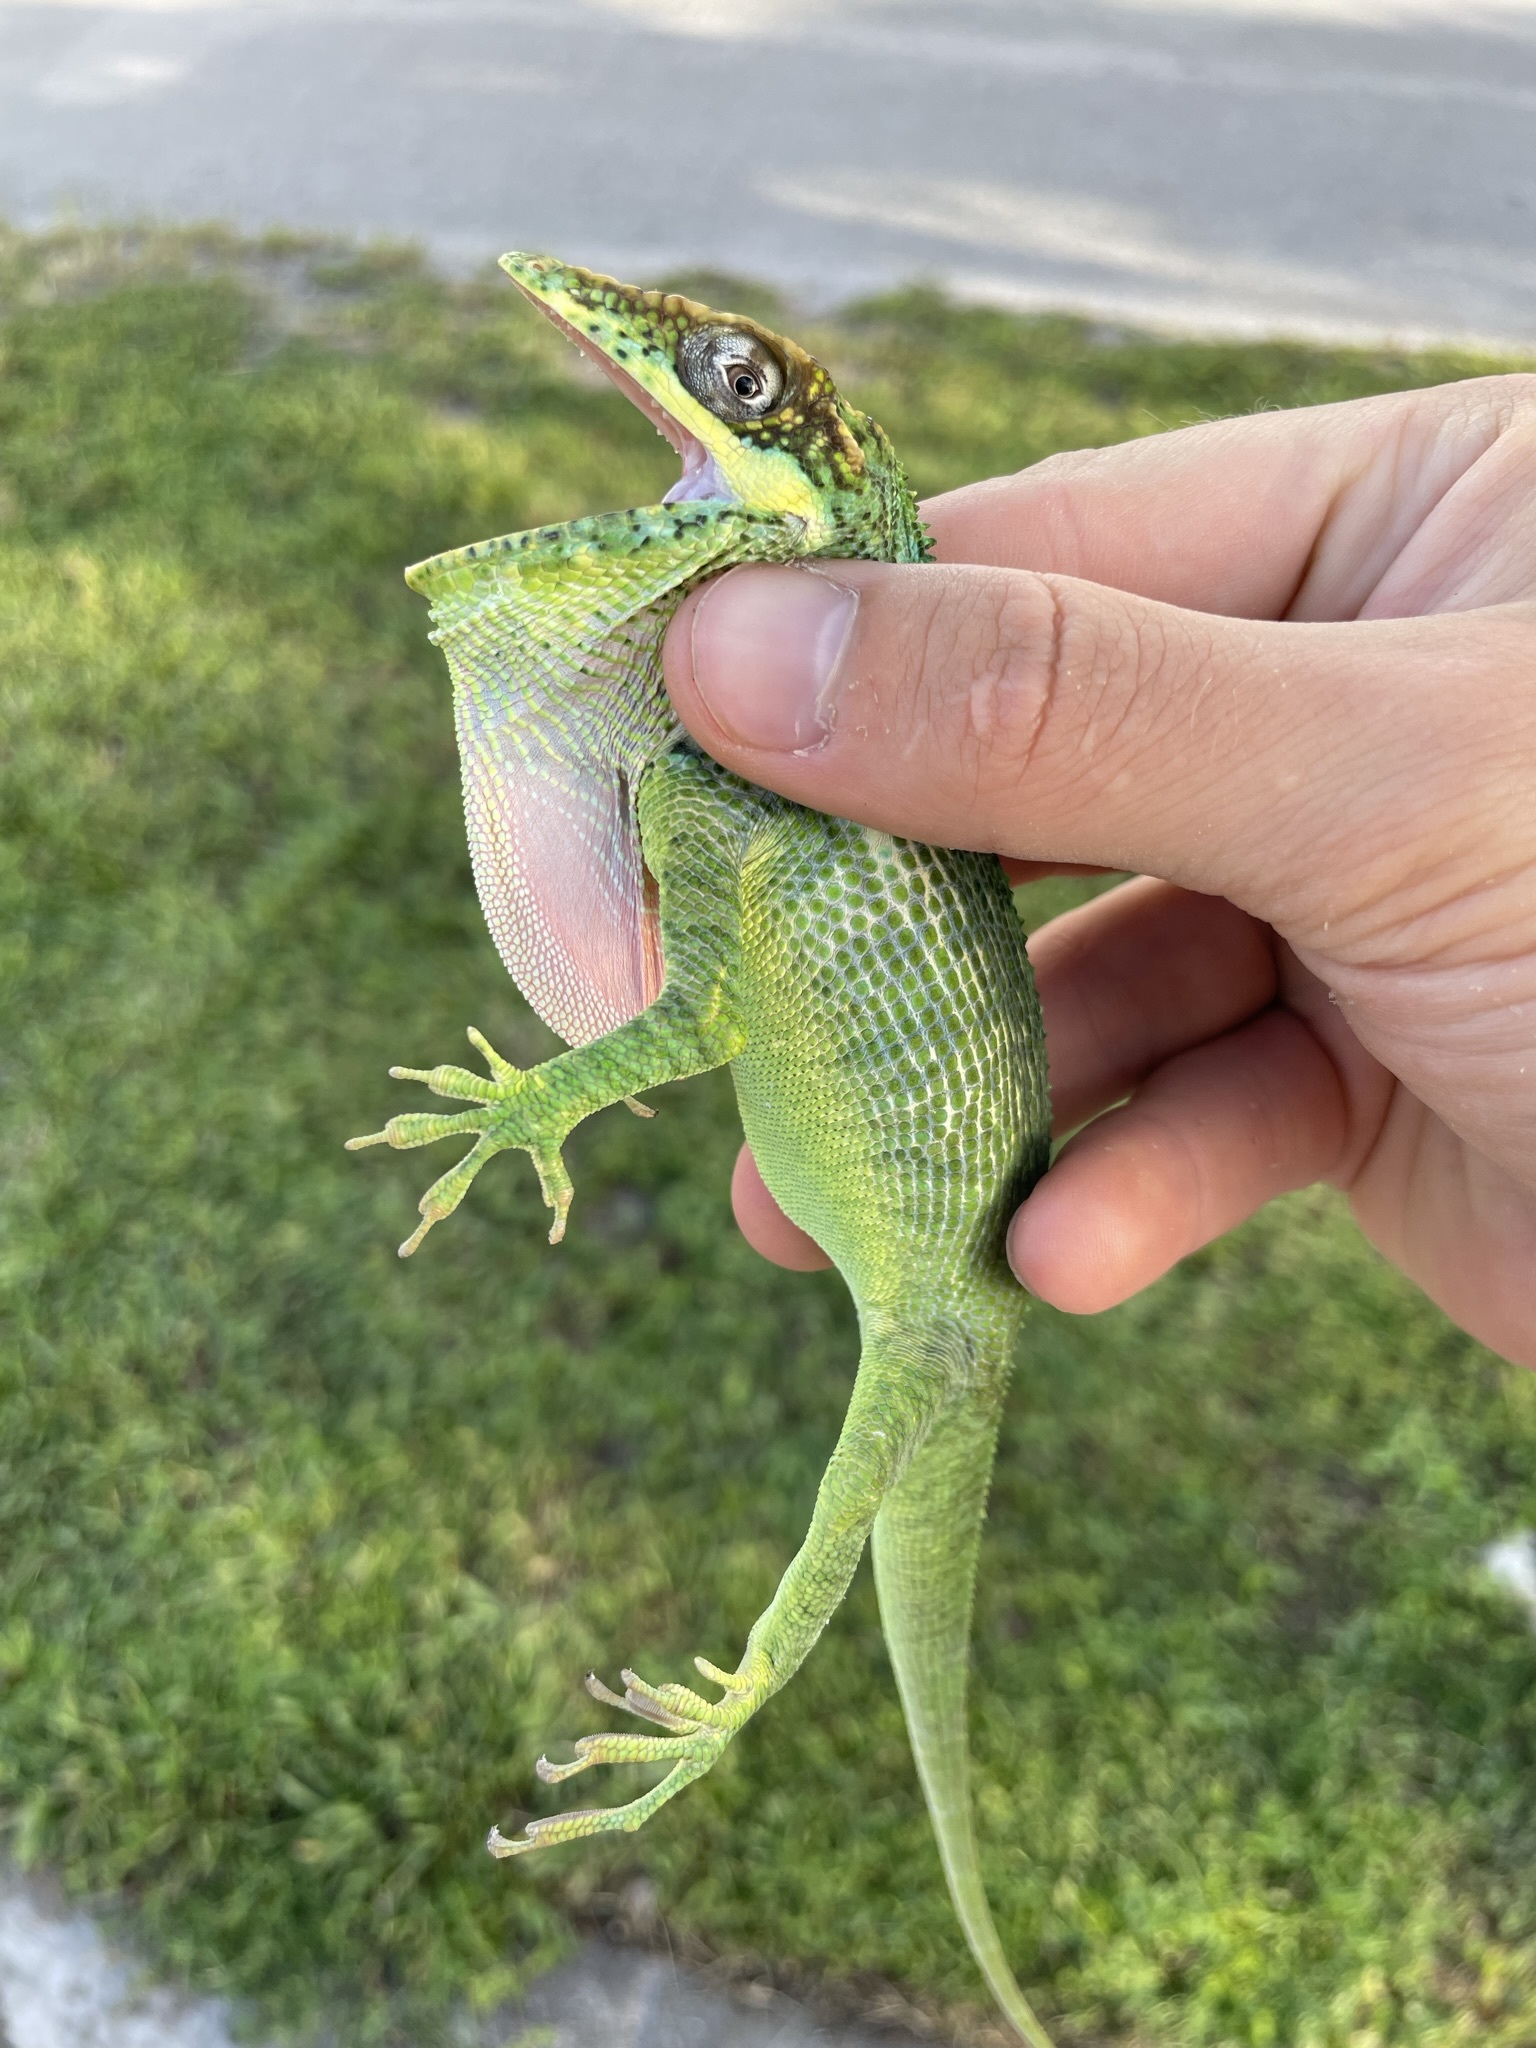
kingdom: Animalia
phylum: Chordata
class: Squamata
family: Dactyloidae
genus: Anolis
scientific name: Anolis equestris
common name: Knight anole
